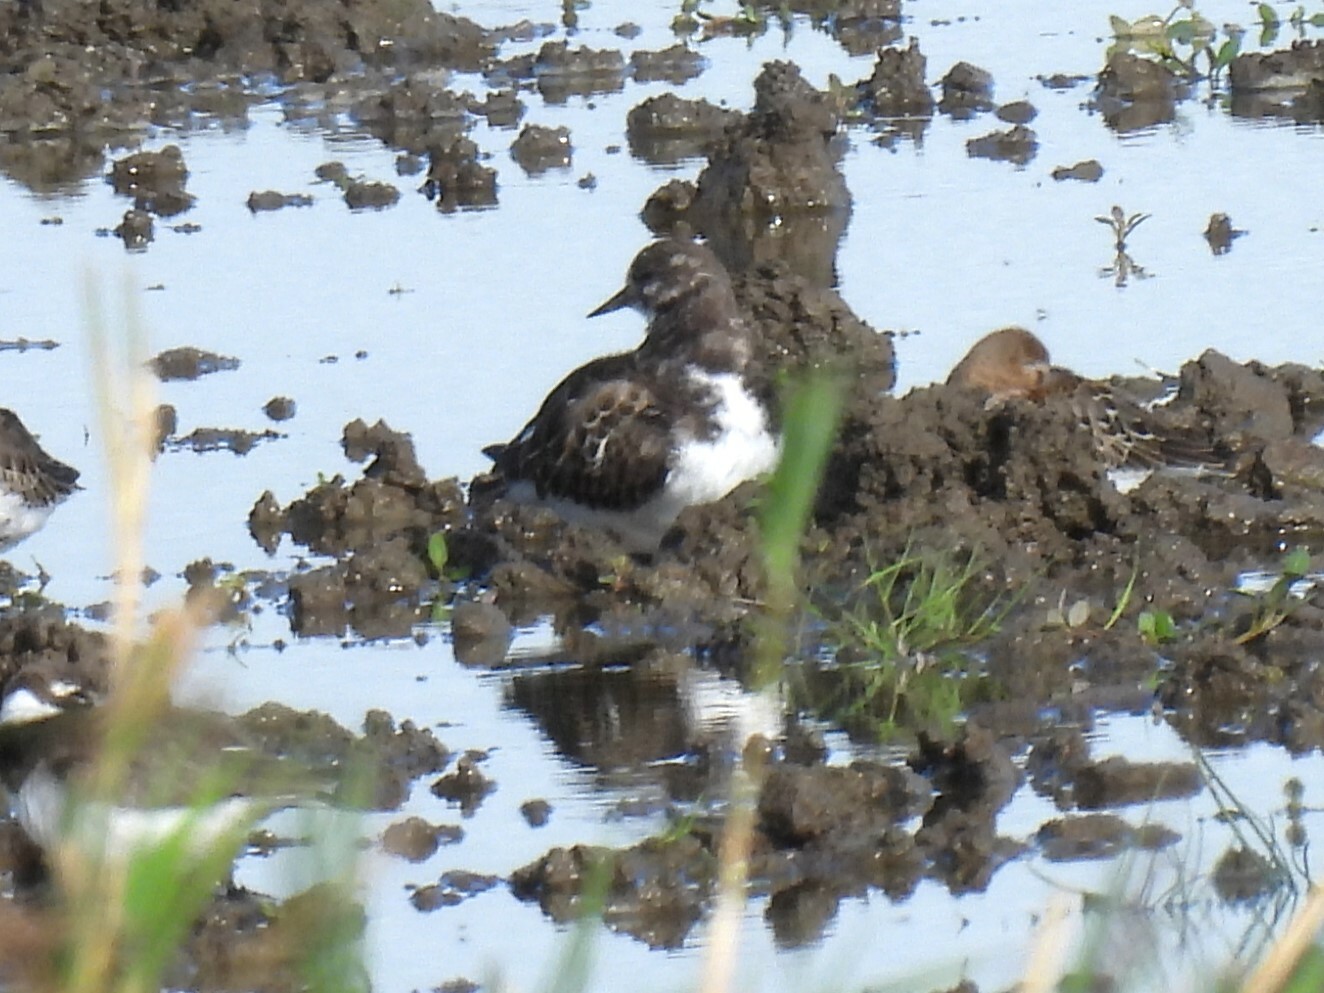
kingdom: Animalia
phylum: Chordata
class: Aves
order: Charadriiformes
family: Scolopacidae
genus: Arenaria
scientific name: Arenaria interpres
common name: Ruddy turnstone
